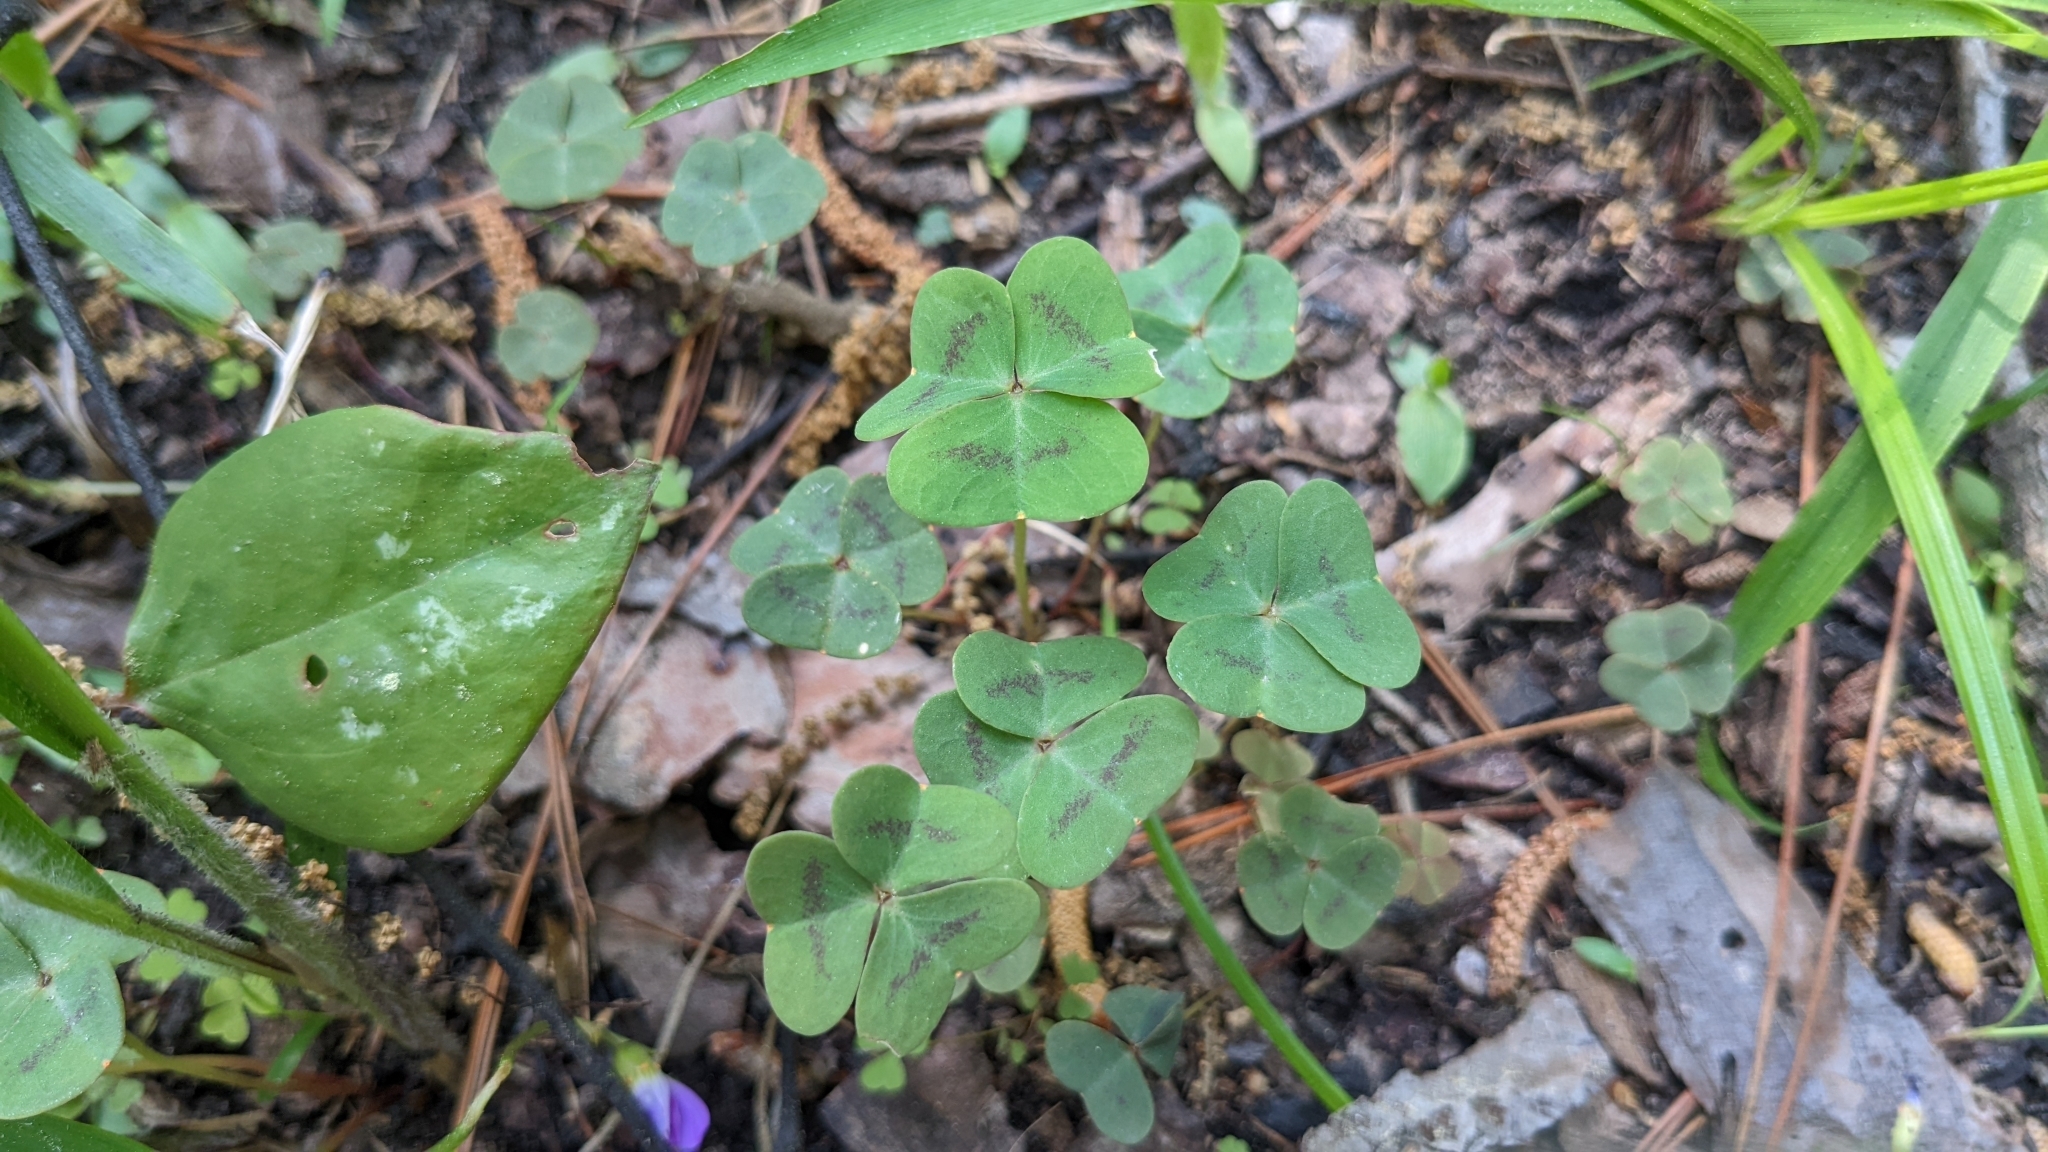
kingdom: Plantae
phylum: Tracheophyta
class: Magnoliopsida
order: Oxalidales
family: Oxalidaceae
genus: Oxalis
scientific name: Oxalis violacea
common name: Violet wood-sorrel
